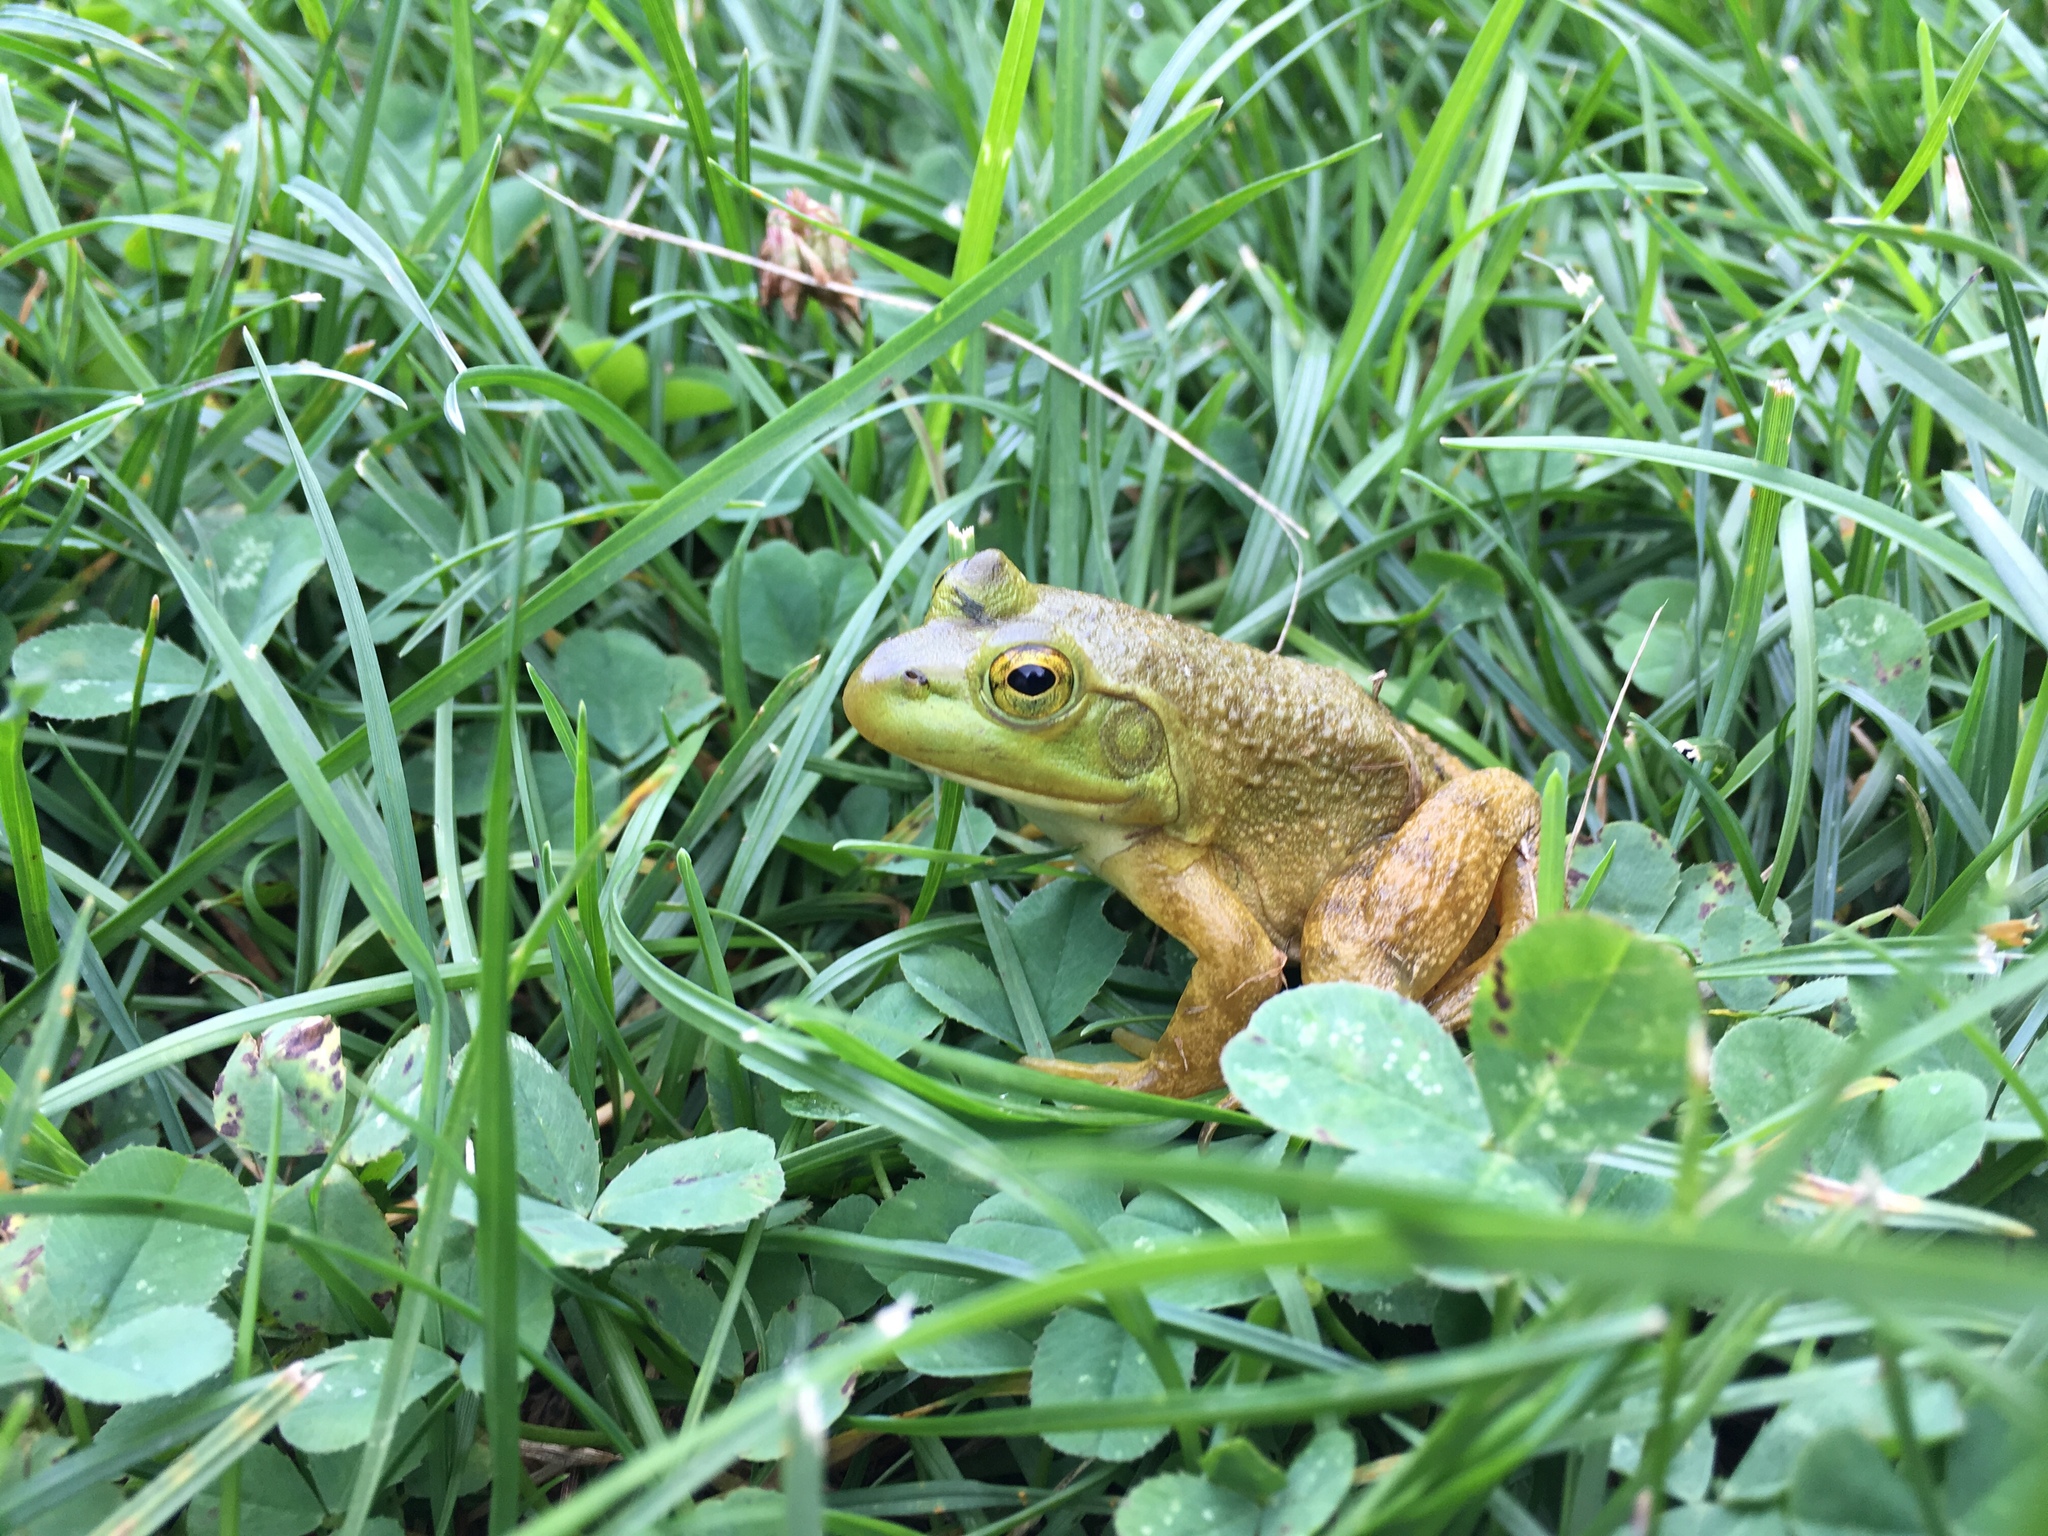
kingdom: Animalia
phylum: Chordata
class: Amphibia
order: Anura
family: Ranidae
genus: Lithobates
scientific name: Lithobates catesbeianus
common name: American bullfrog
